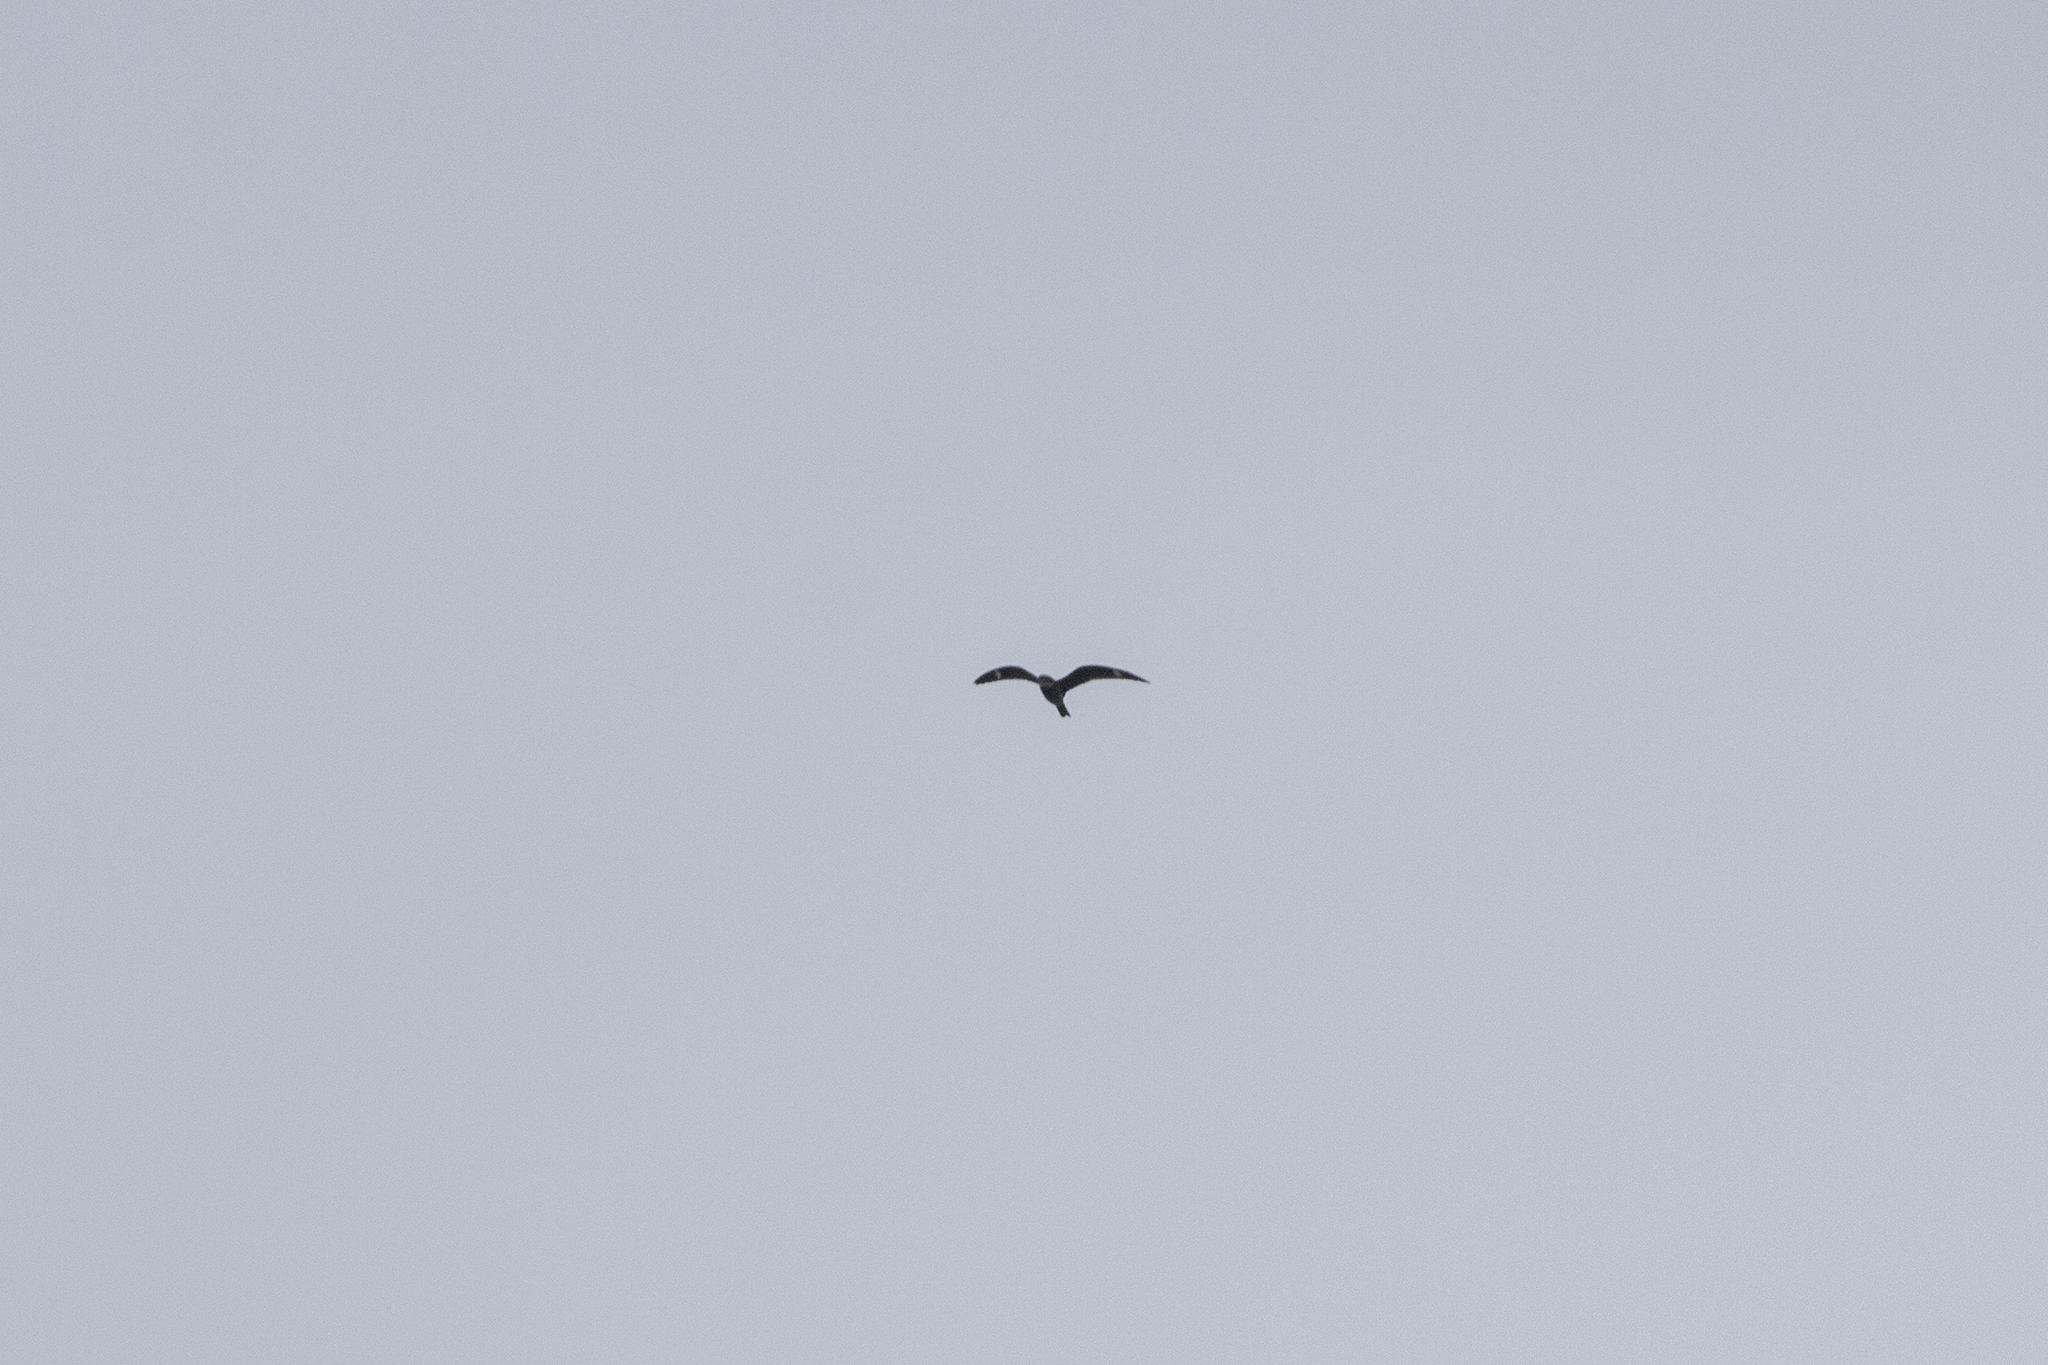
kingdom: Animalia
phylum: Chordata
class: Aves
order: Caprimulgiformes
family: Caprimulgidae
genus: Chordeiles
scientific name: Chordeiles minor
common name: Common nighthawk
